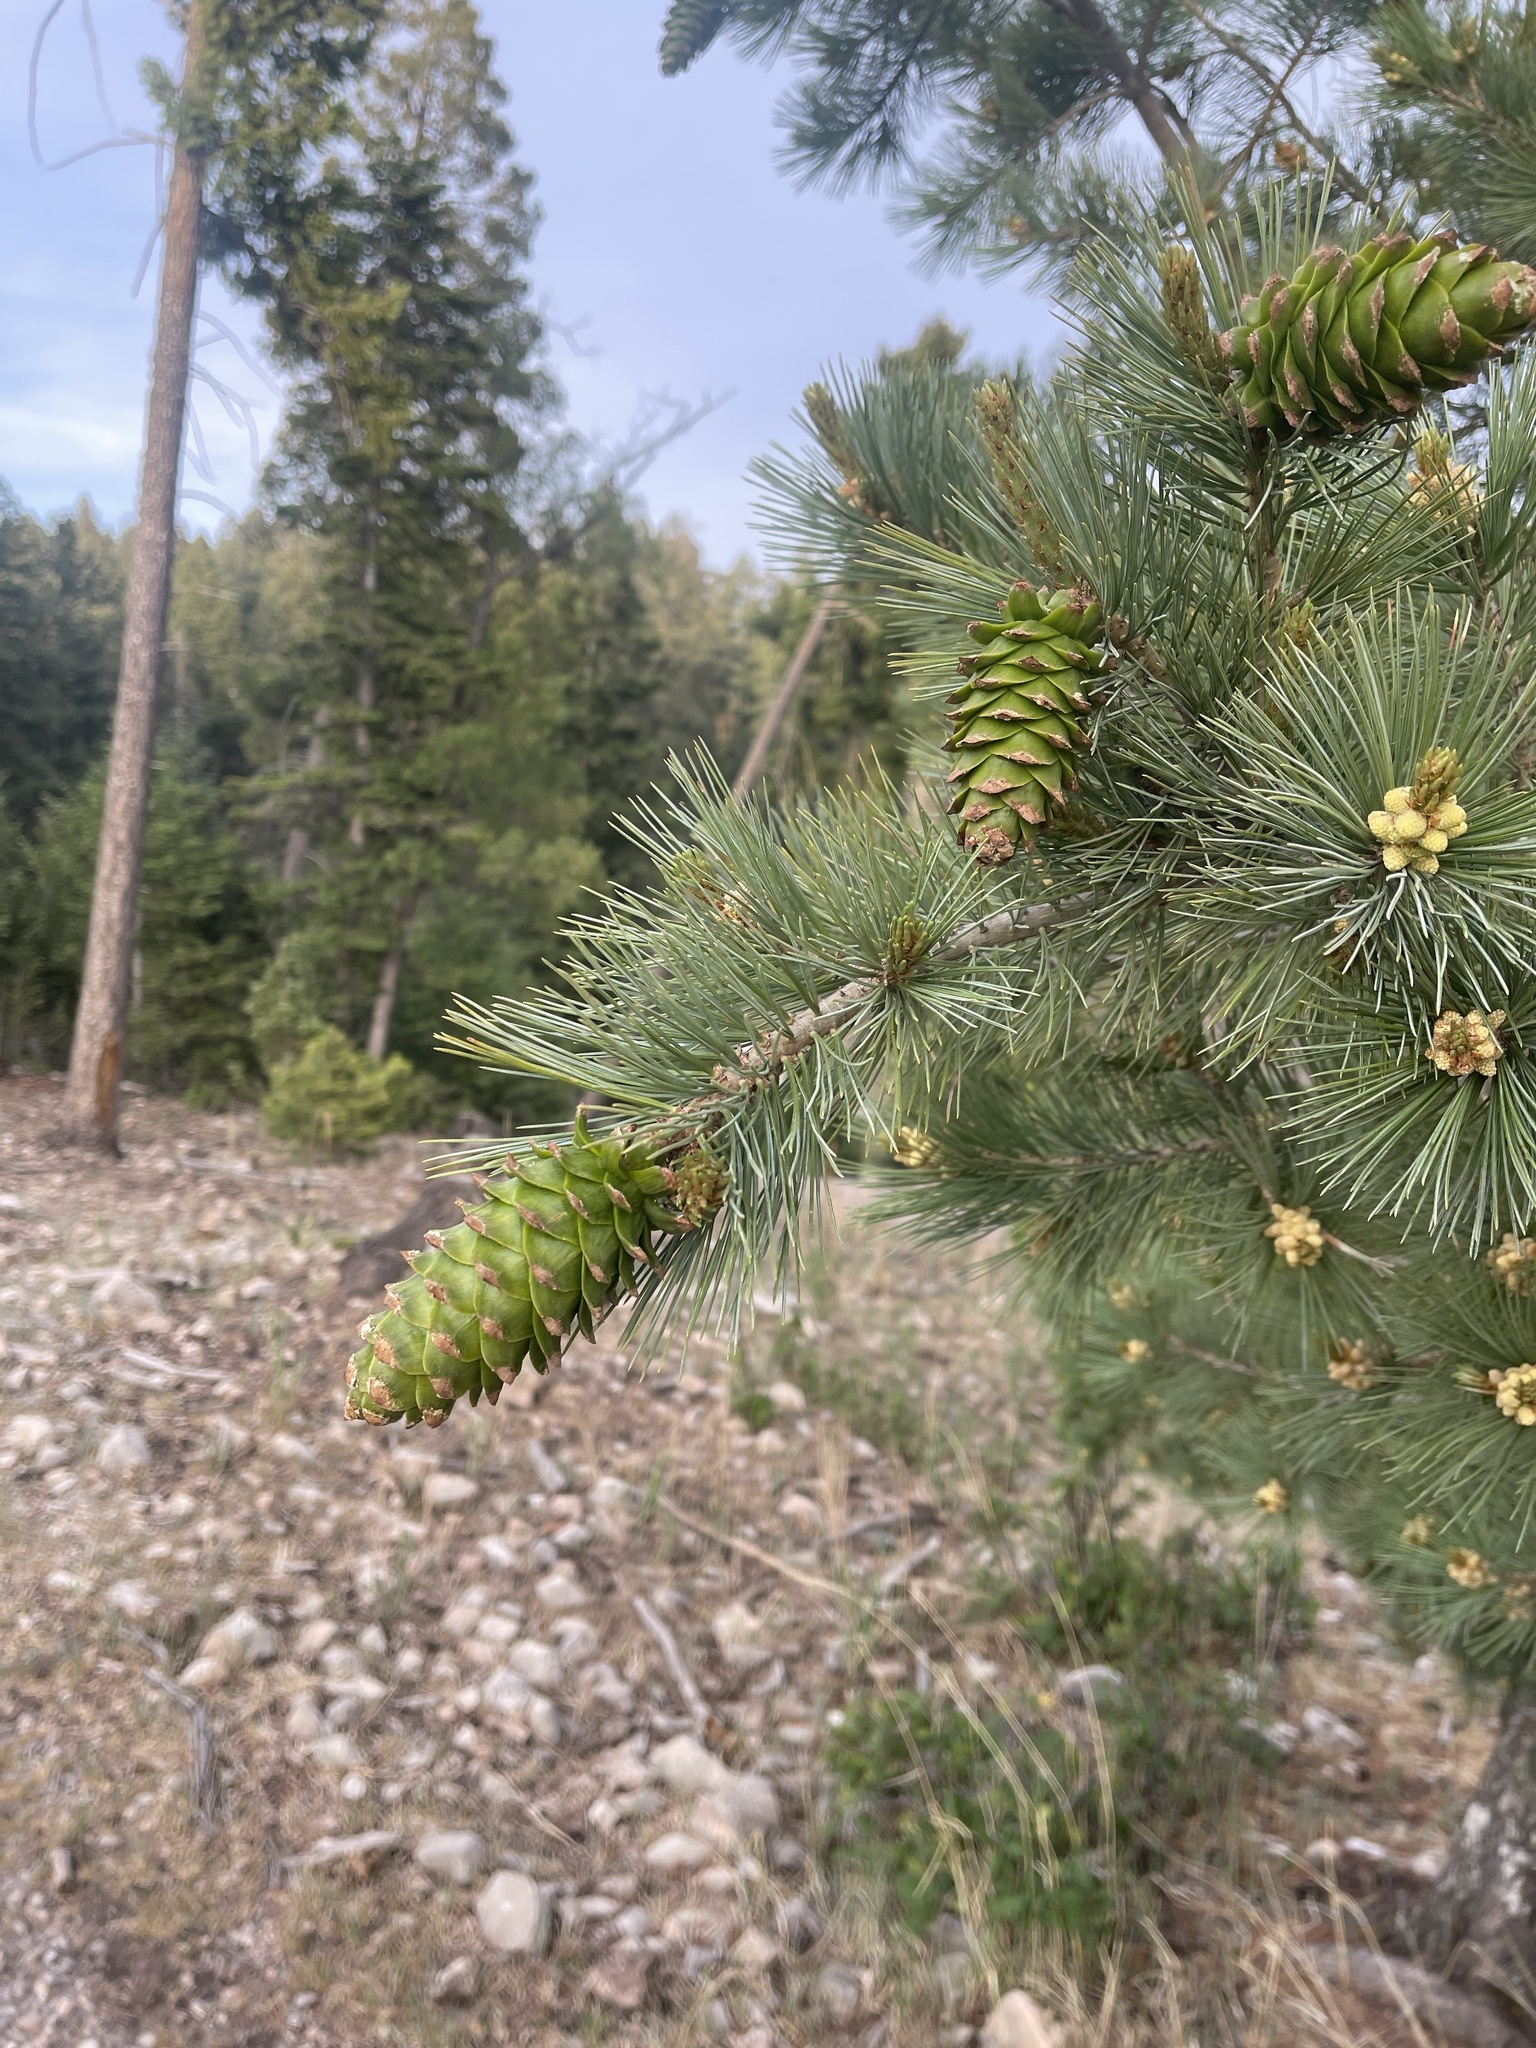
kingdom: Plantae
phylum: Tracheophyta
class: Pinopsida
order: Pinales
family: Pinaceae
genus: Pinus
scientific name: Pinus strobiformis
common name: Southwestern white pine
